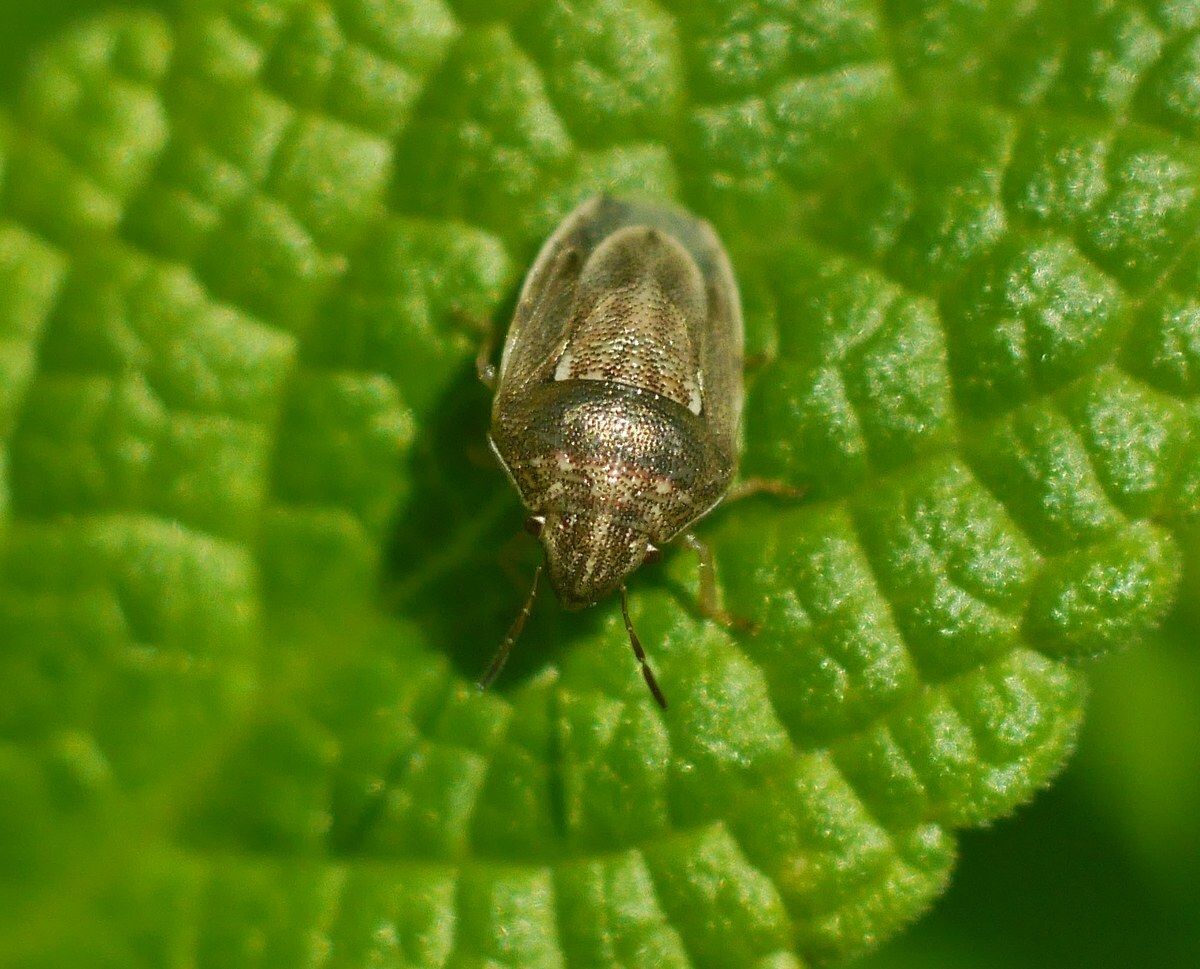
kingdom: Animalia
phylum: Arthropoda
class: Insecta
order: Hemiptera
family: Pentatomidae
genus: Neottiglossa
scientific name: Neottiglossa leporina
